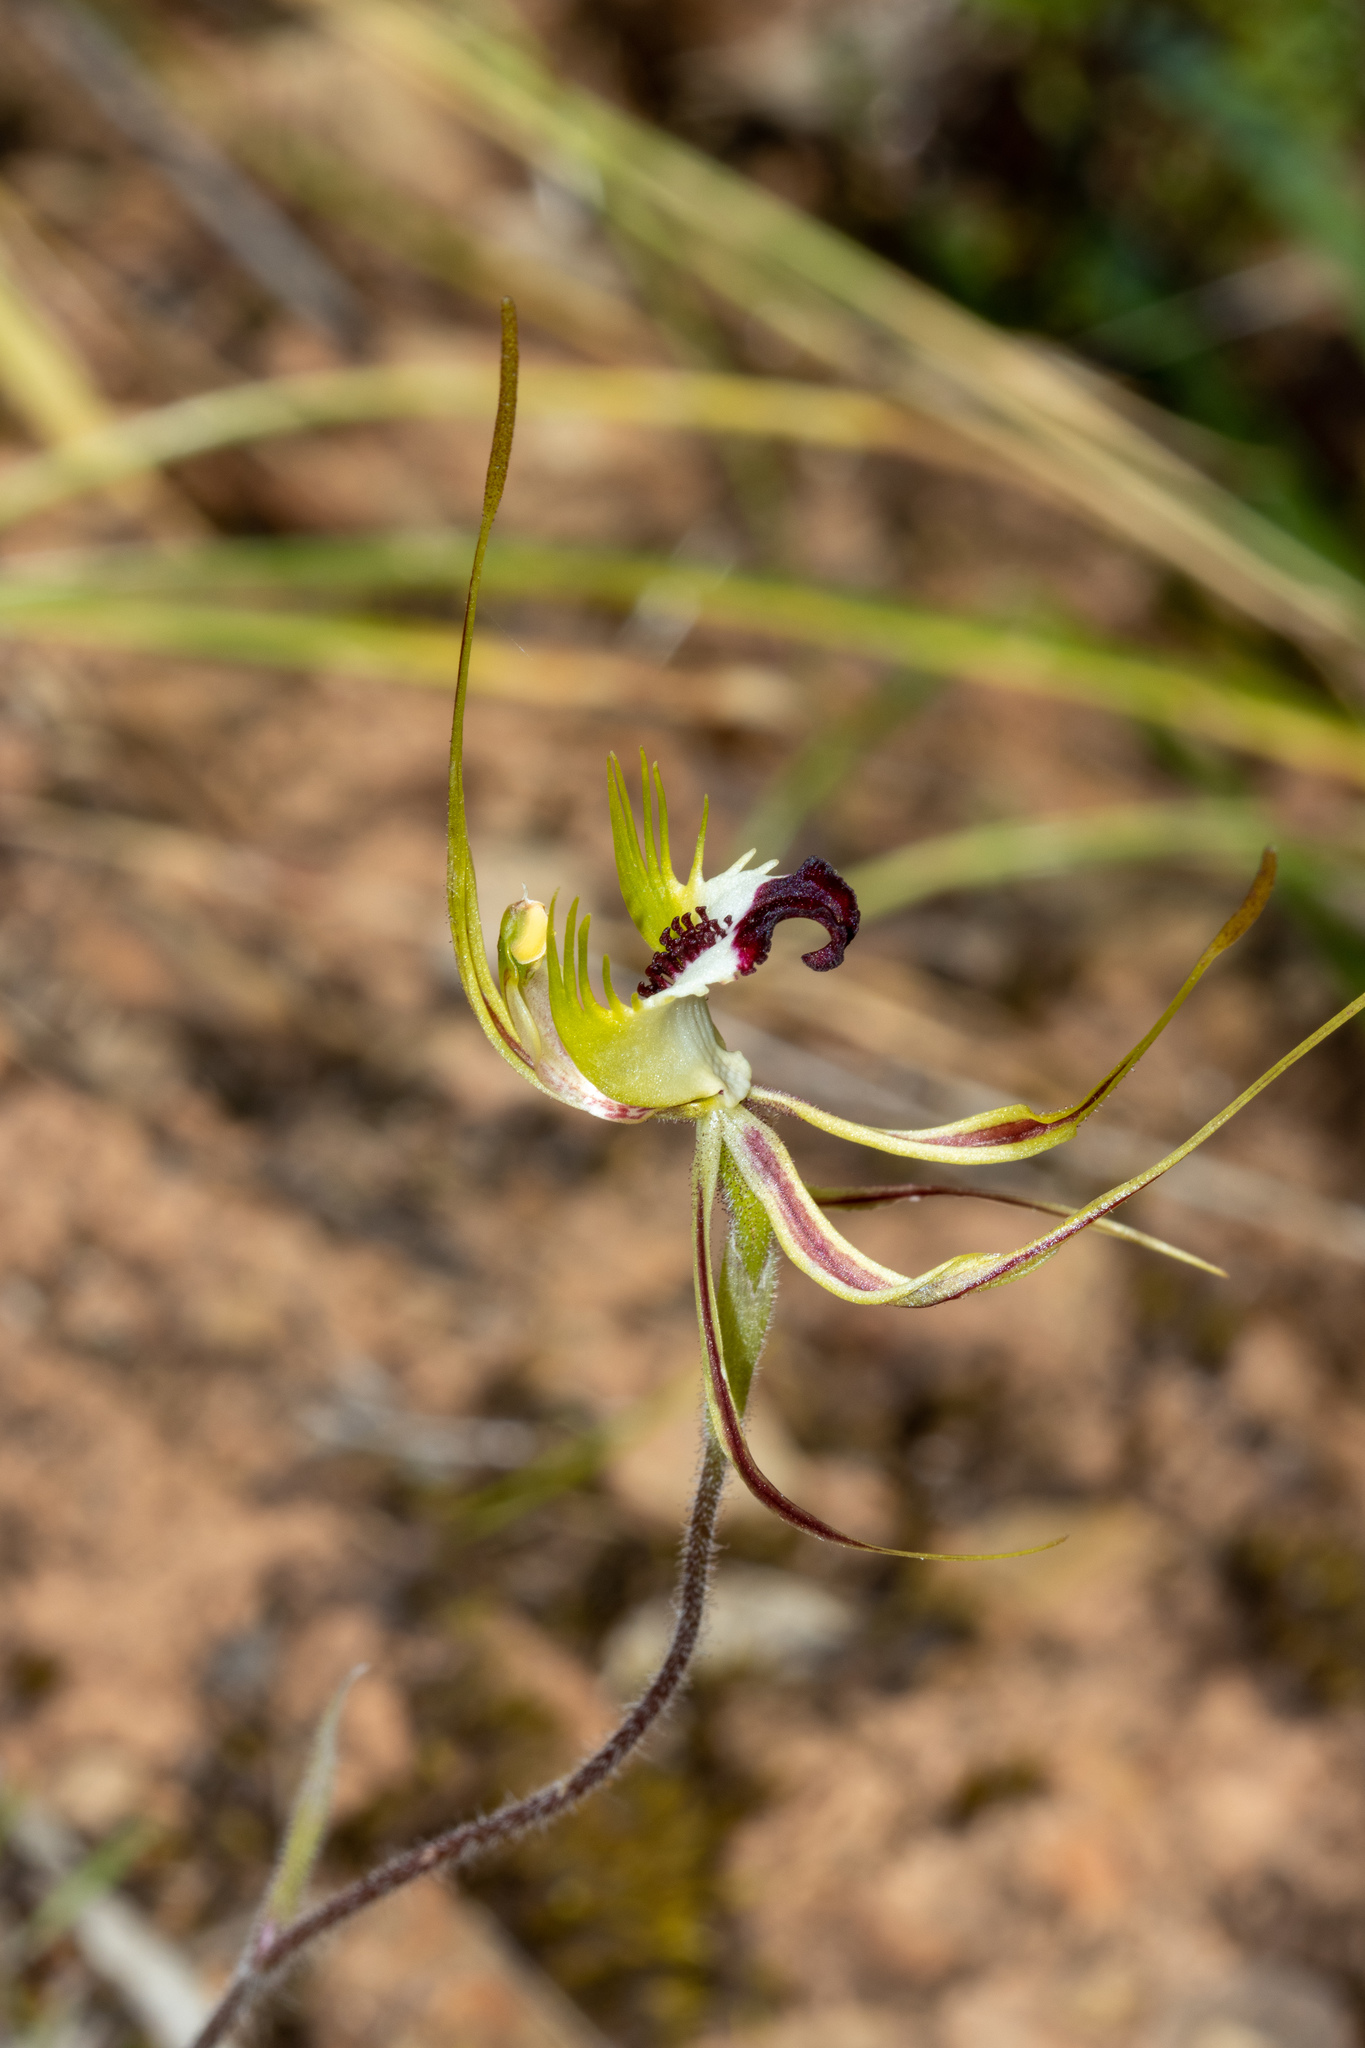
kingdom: Plantae
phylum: Tracheophyta
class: Liliopsida
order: Asparagales
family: Orchidaceae
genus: Caladenia
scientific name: Caladenia tentaculata
